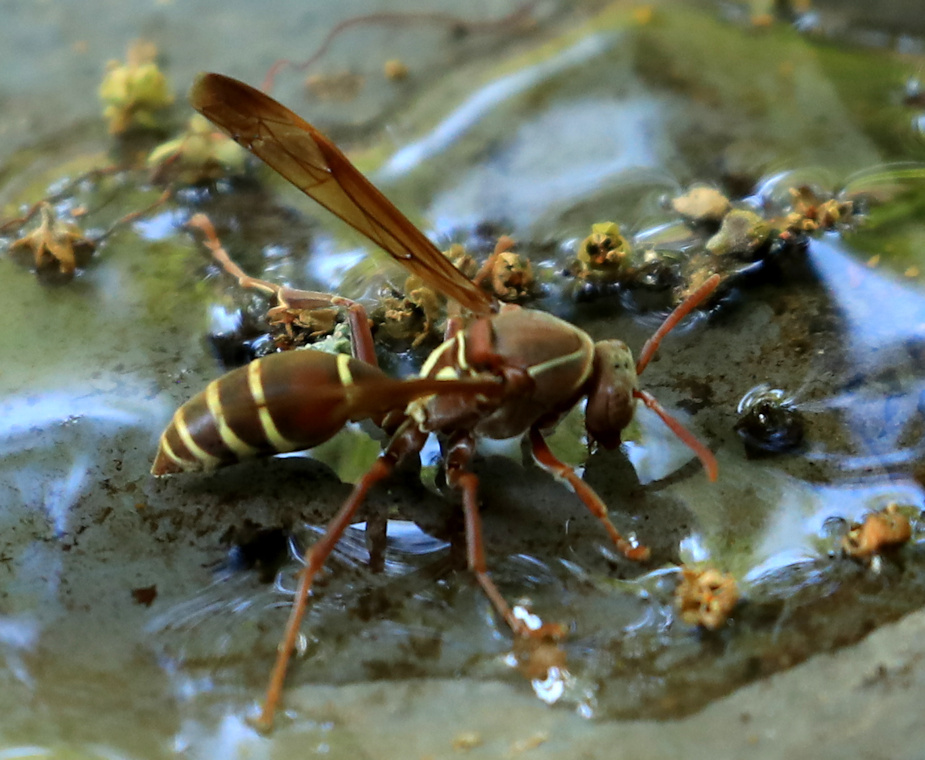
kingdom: Animalia
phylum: Arthropoda
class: Insecta
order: Hymenoptera
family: Eumenidae
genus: Polistes
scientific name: Polistes fastidiosus
